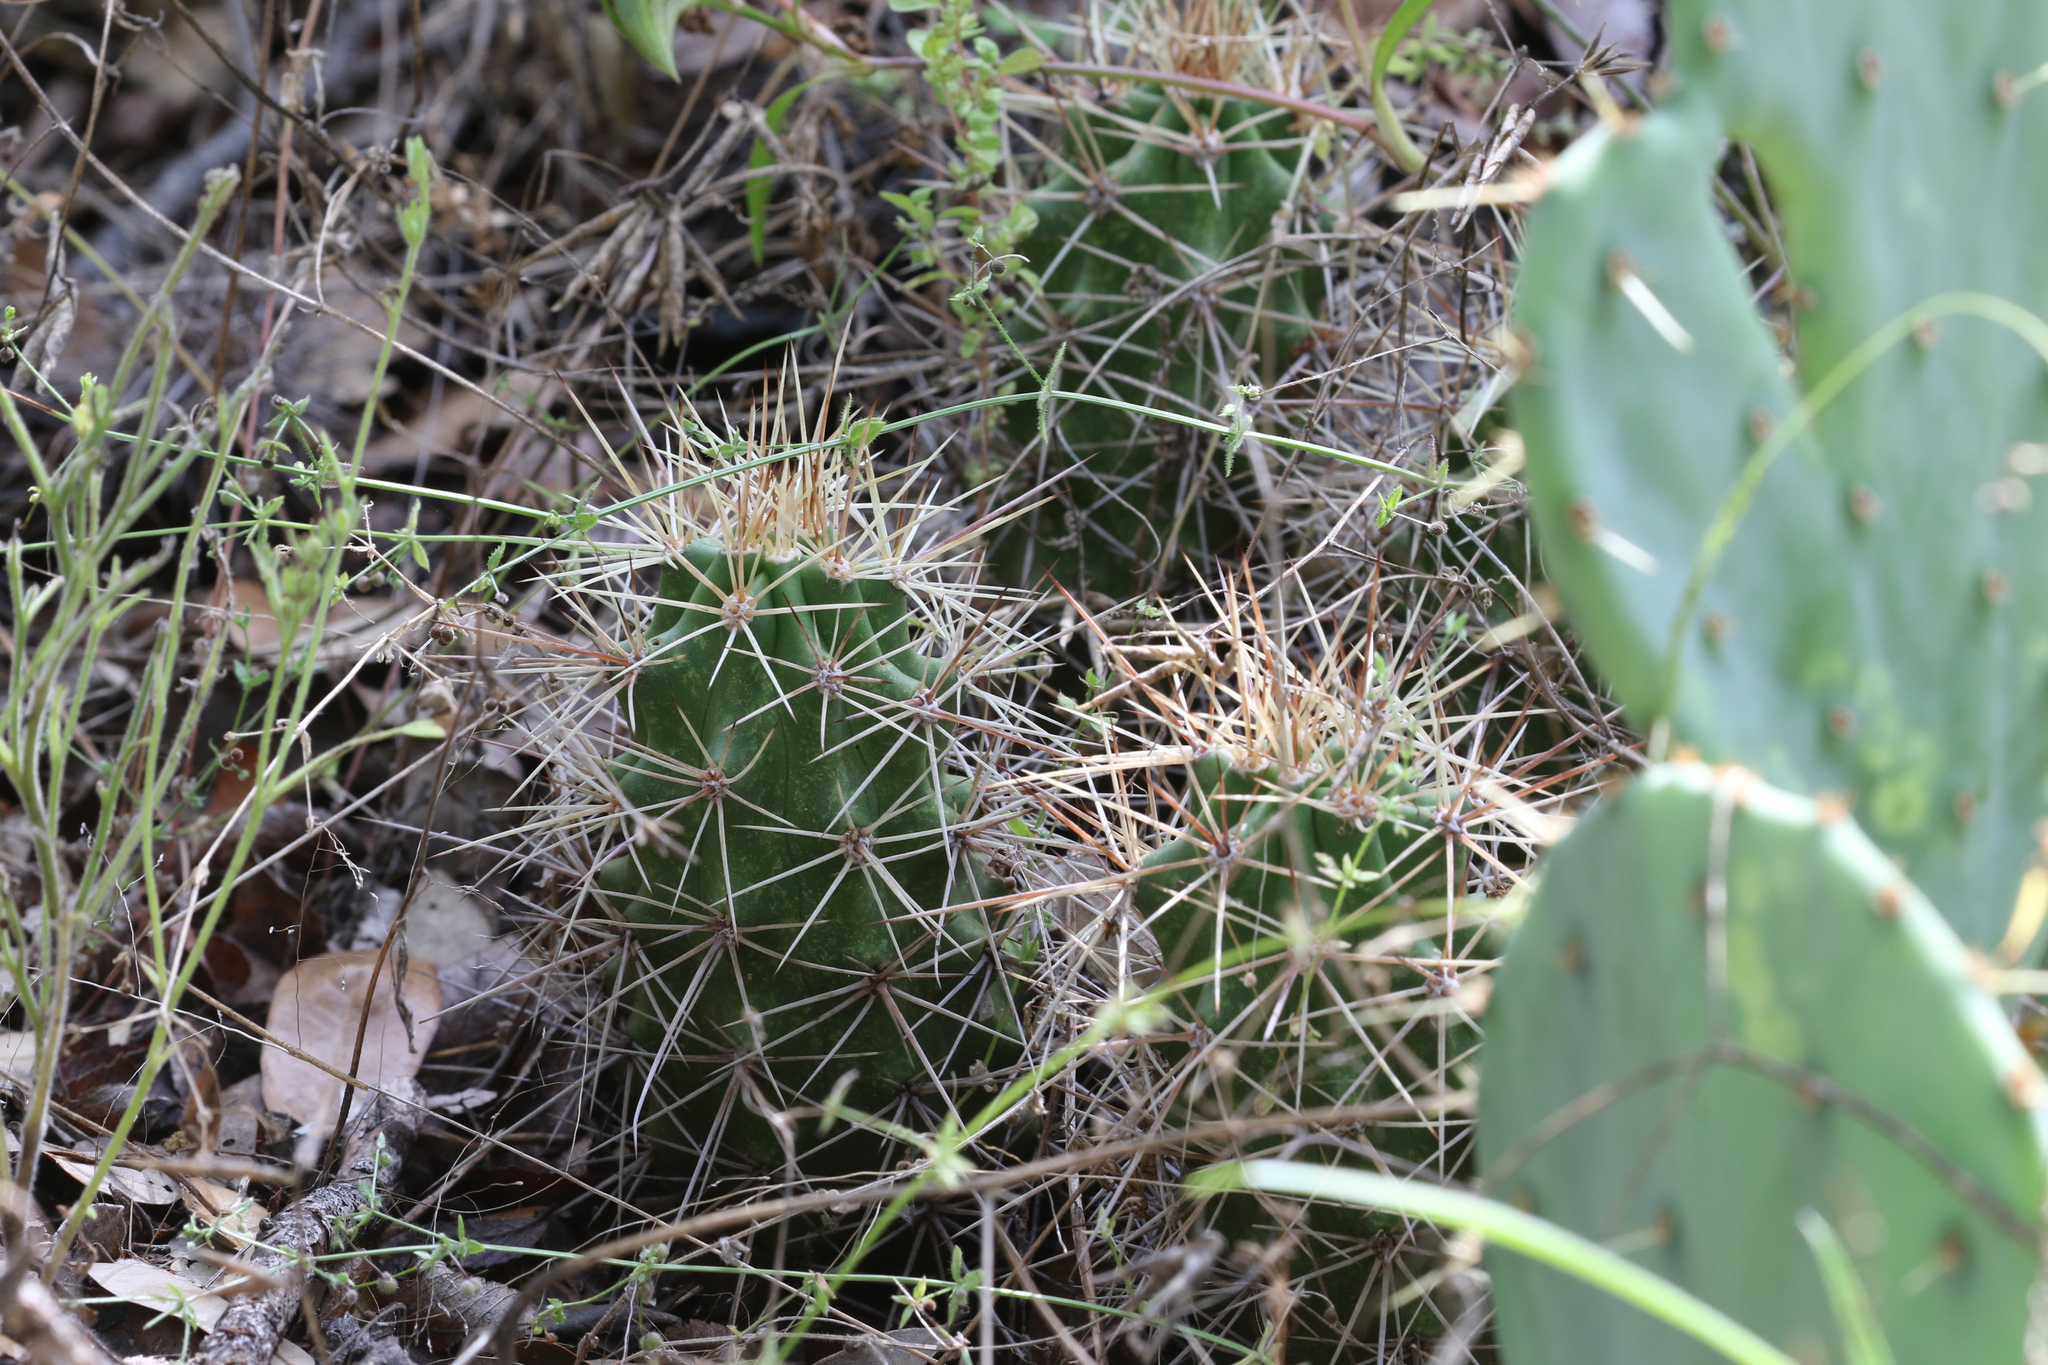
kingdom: Plantae
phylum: Tracheophyta
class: Magnoliopsida
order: Caryophyllales
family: Cactaceae
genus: Echinocereus
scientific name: Echinocereus coccineus
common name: Scarlet hedgehog cactus
